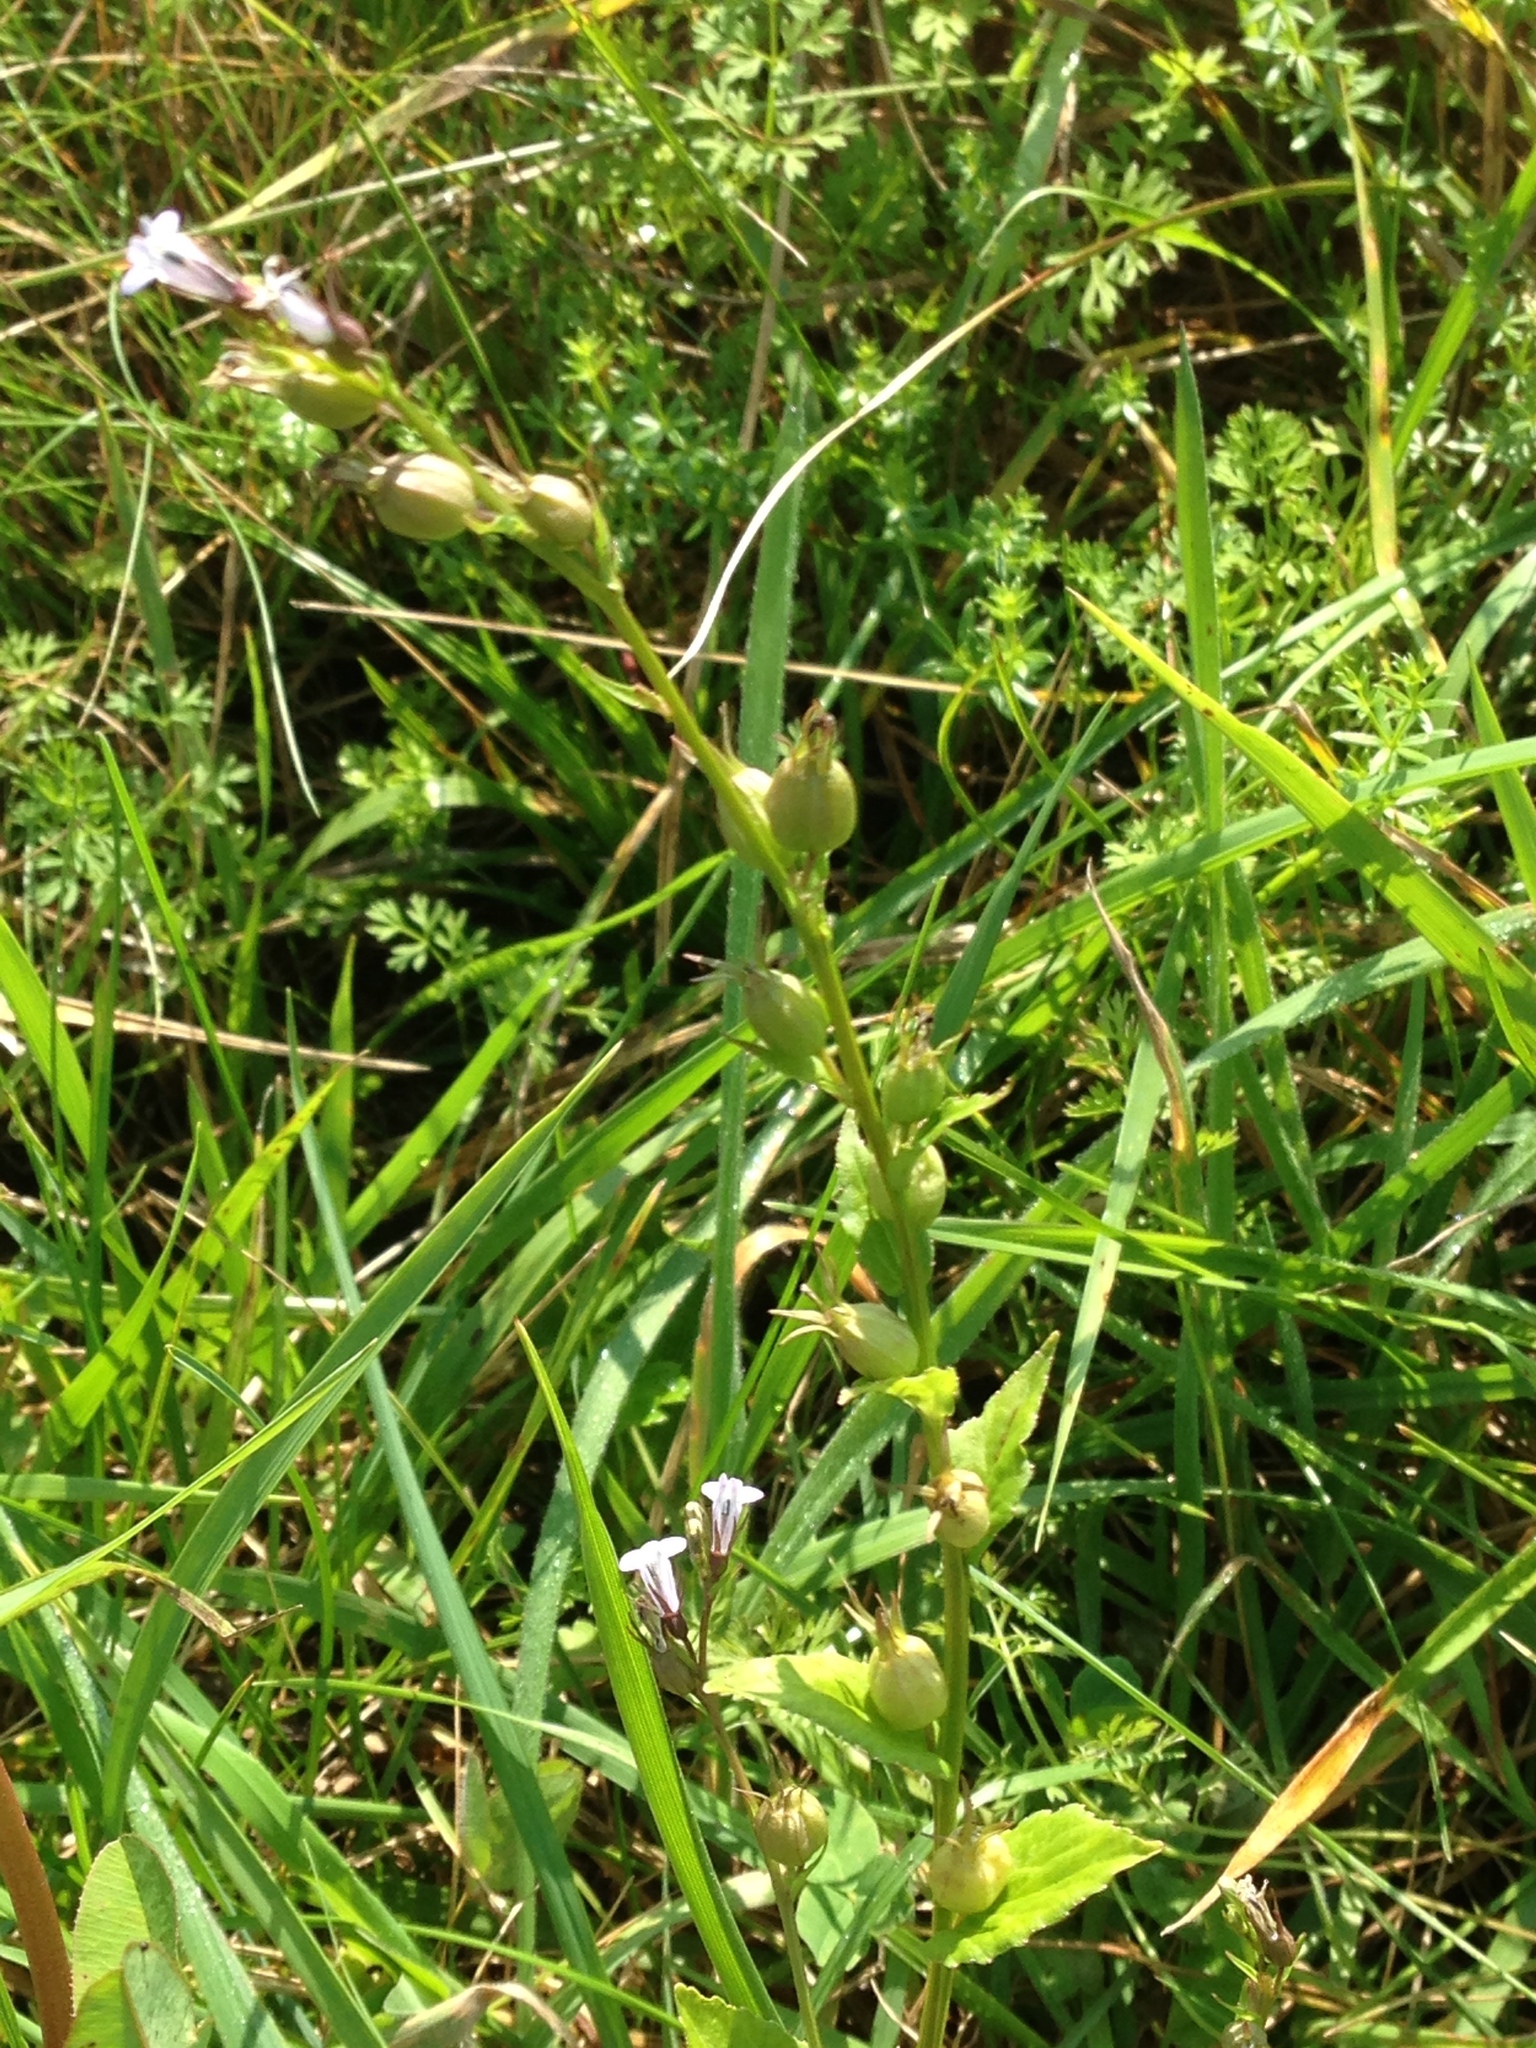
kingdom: Plantae
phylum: Tracheophyta
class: Magnoliopsida
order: Asterales
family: Campanulaceae
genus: Lobelia
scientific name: Lobelia inflata
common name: Indian tobacco
